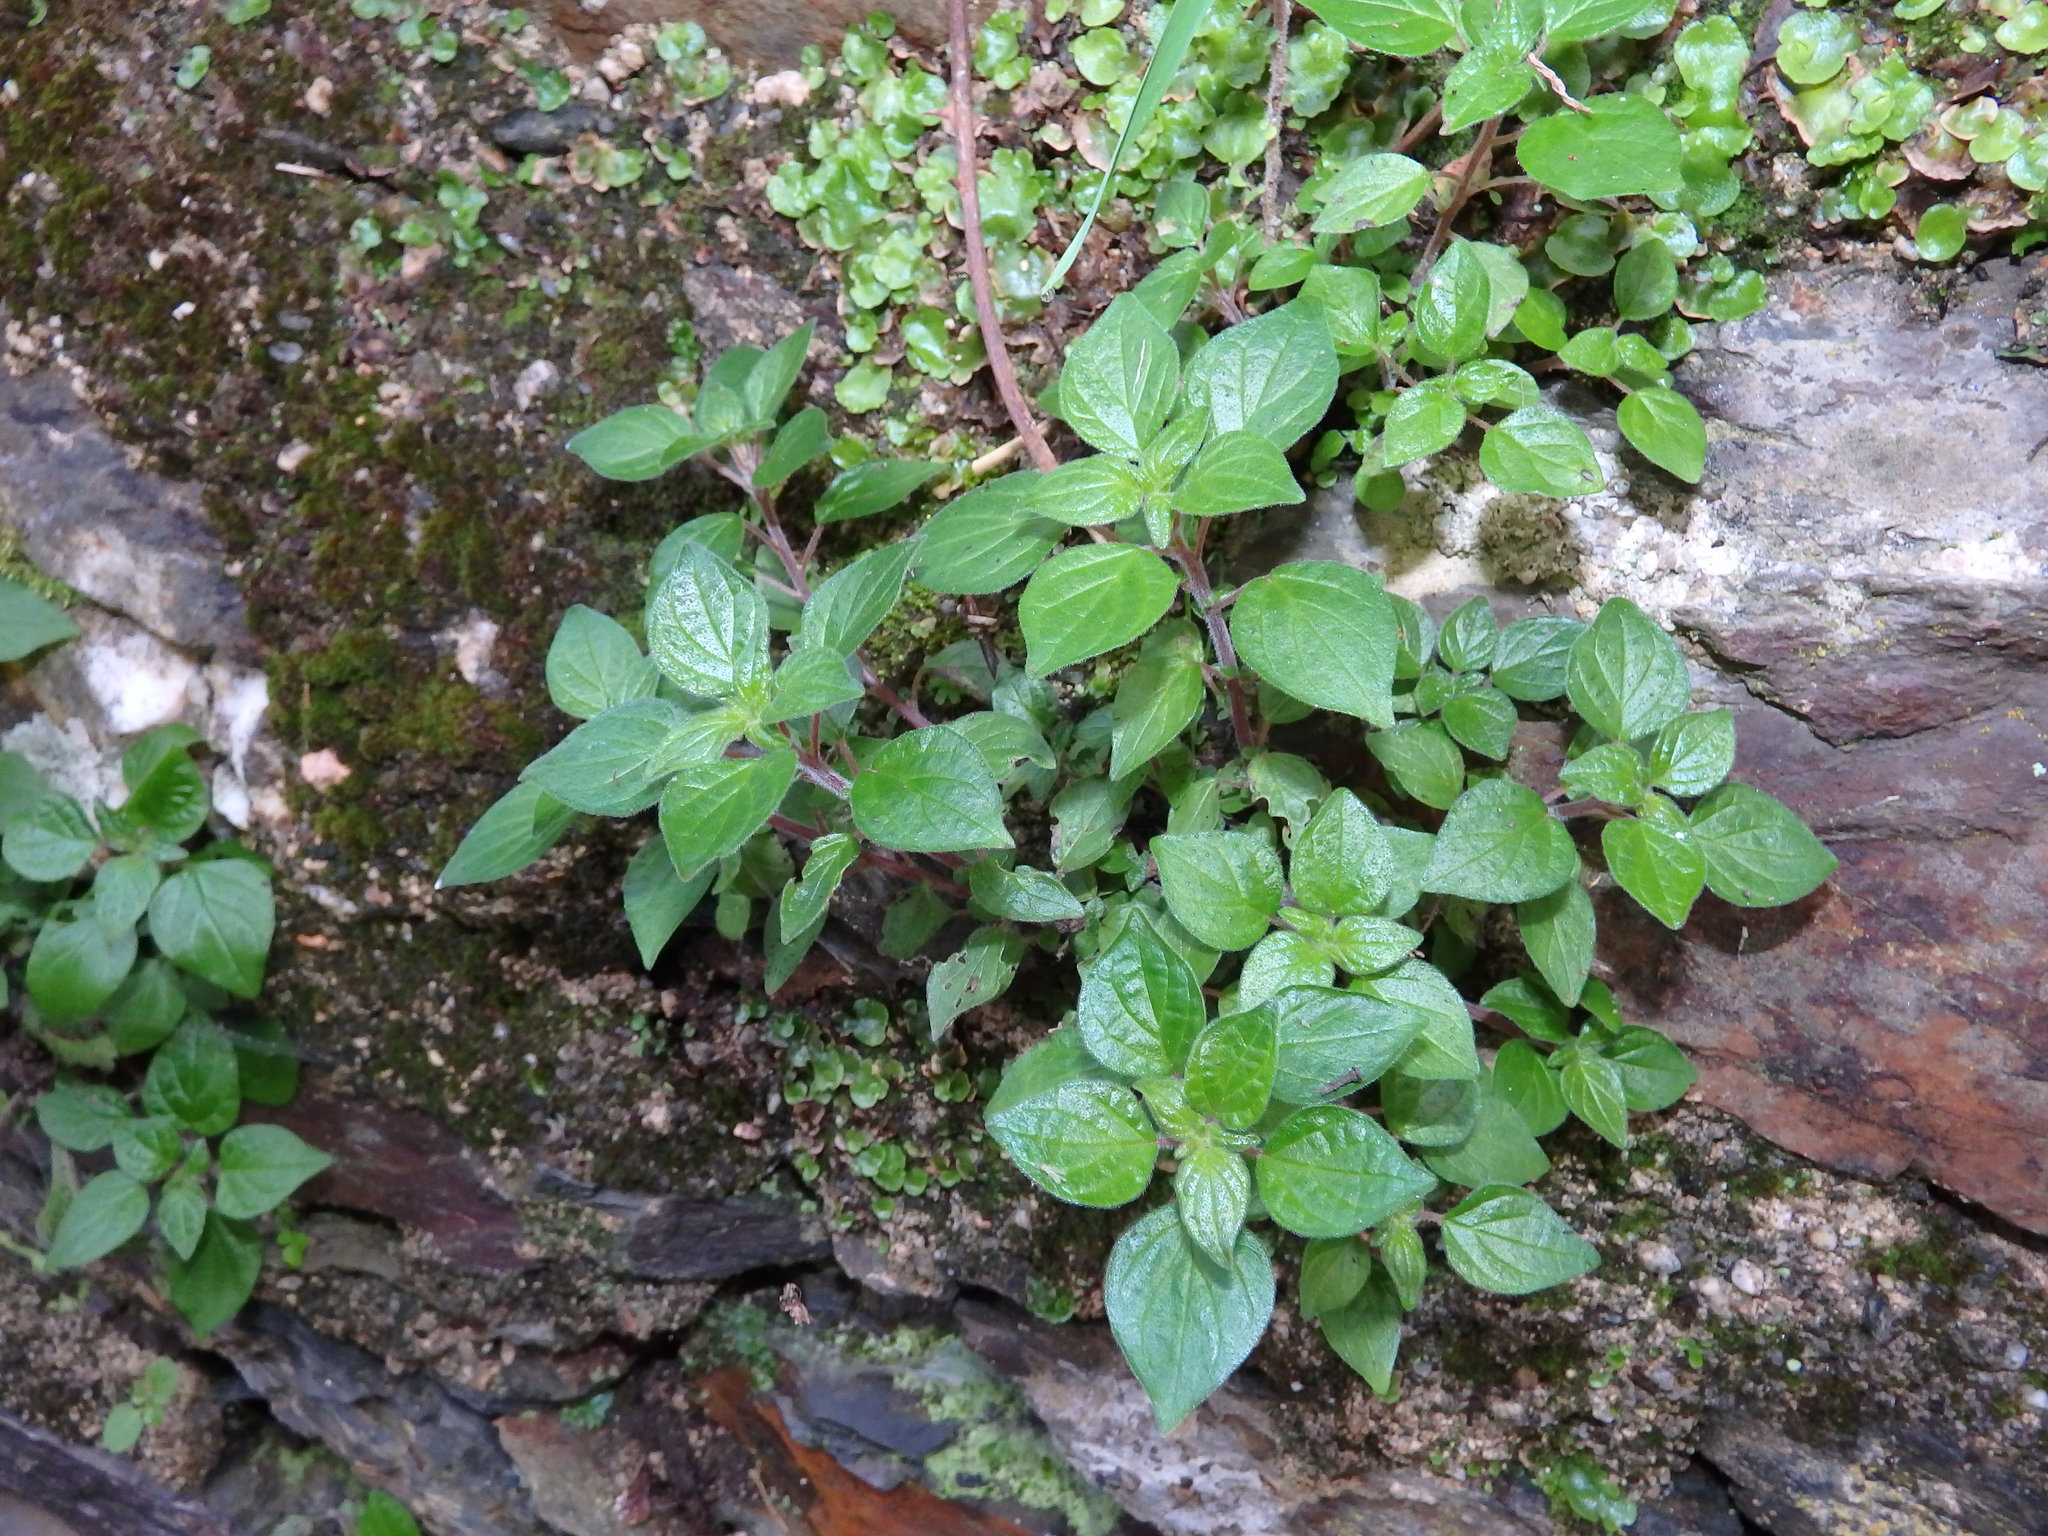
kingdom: Plantae
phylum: Tracheophyta
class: Magnoliopsida
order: Rosales
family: Urticaceae
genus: Parietaria
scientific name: Parietaria judaica
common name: Pellitory-of-the-wall
